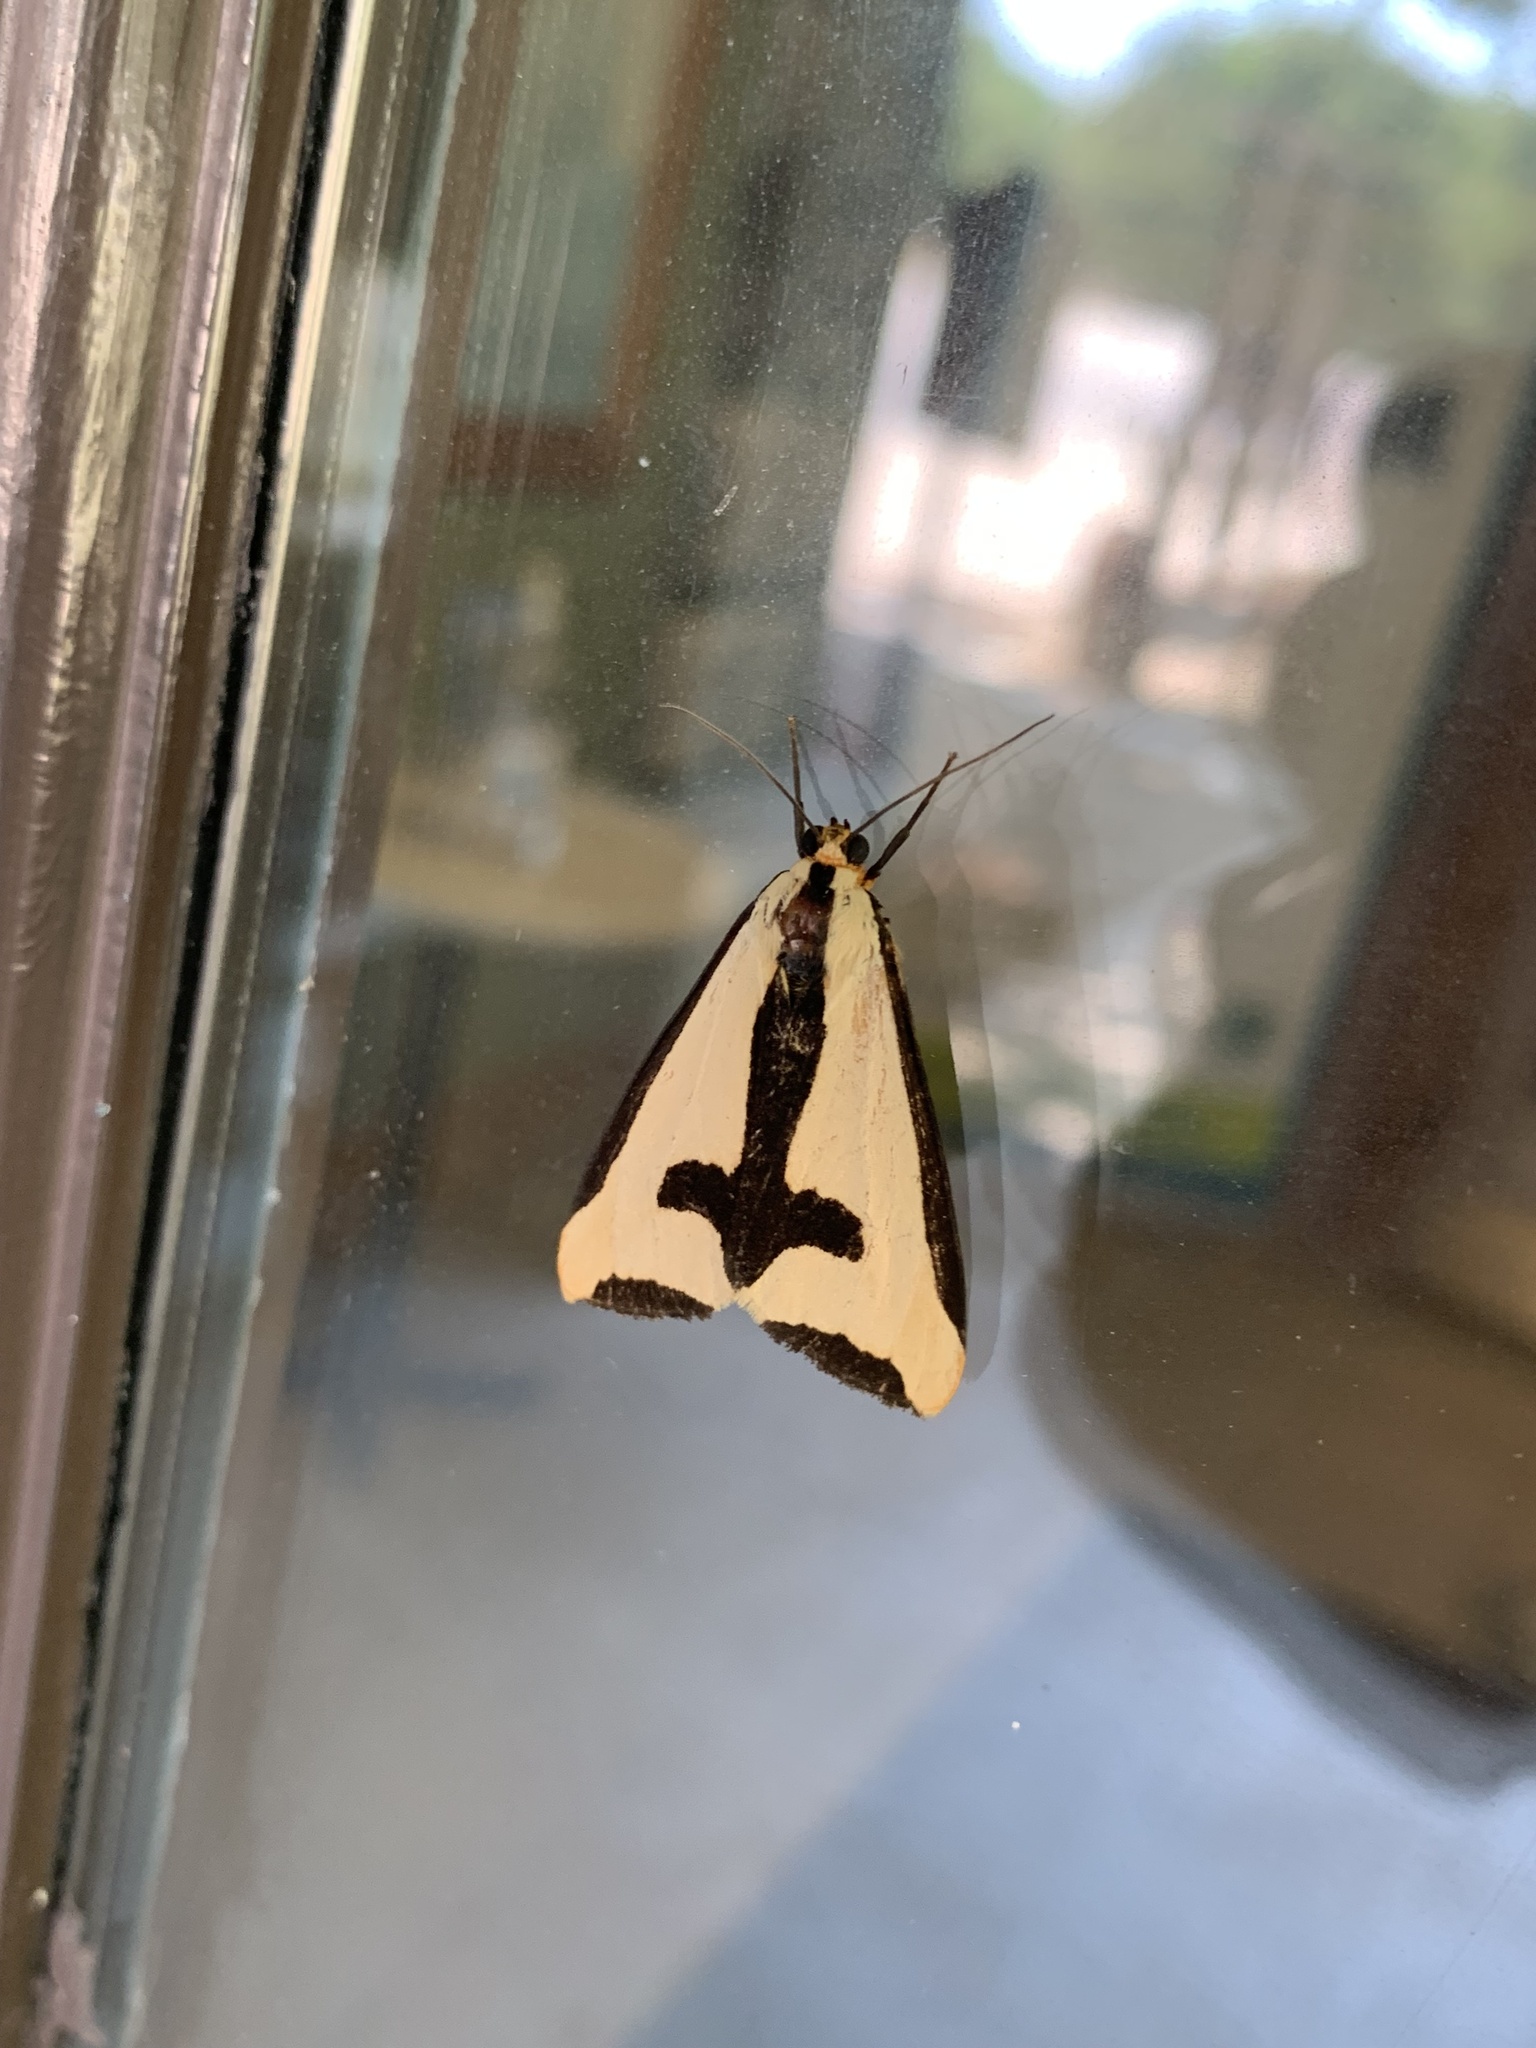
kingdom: Animalia
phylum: Arthropoda
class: Insecta
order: Lepidoptera
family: Erebidae
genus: Haploa
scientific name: Haploa clymene
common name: Clymene moth
